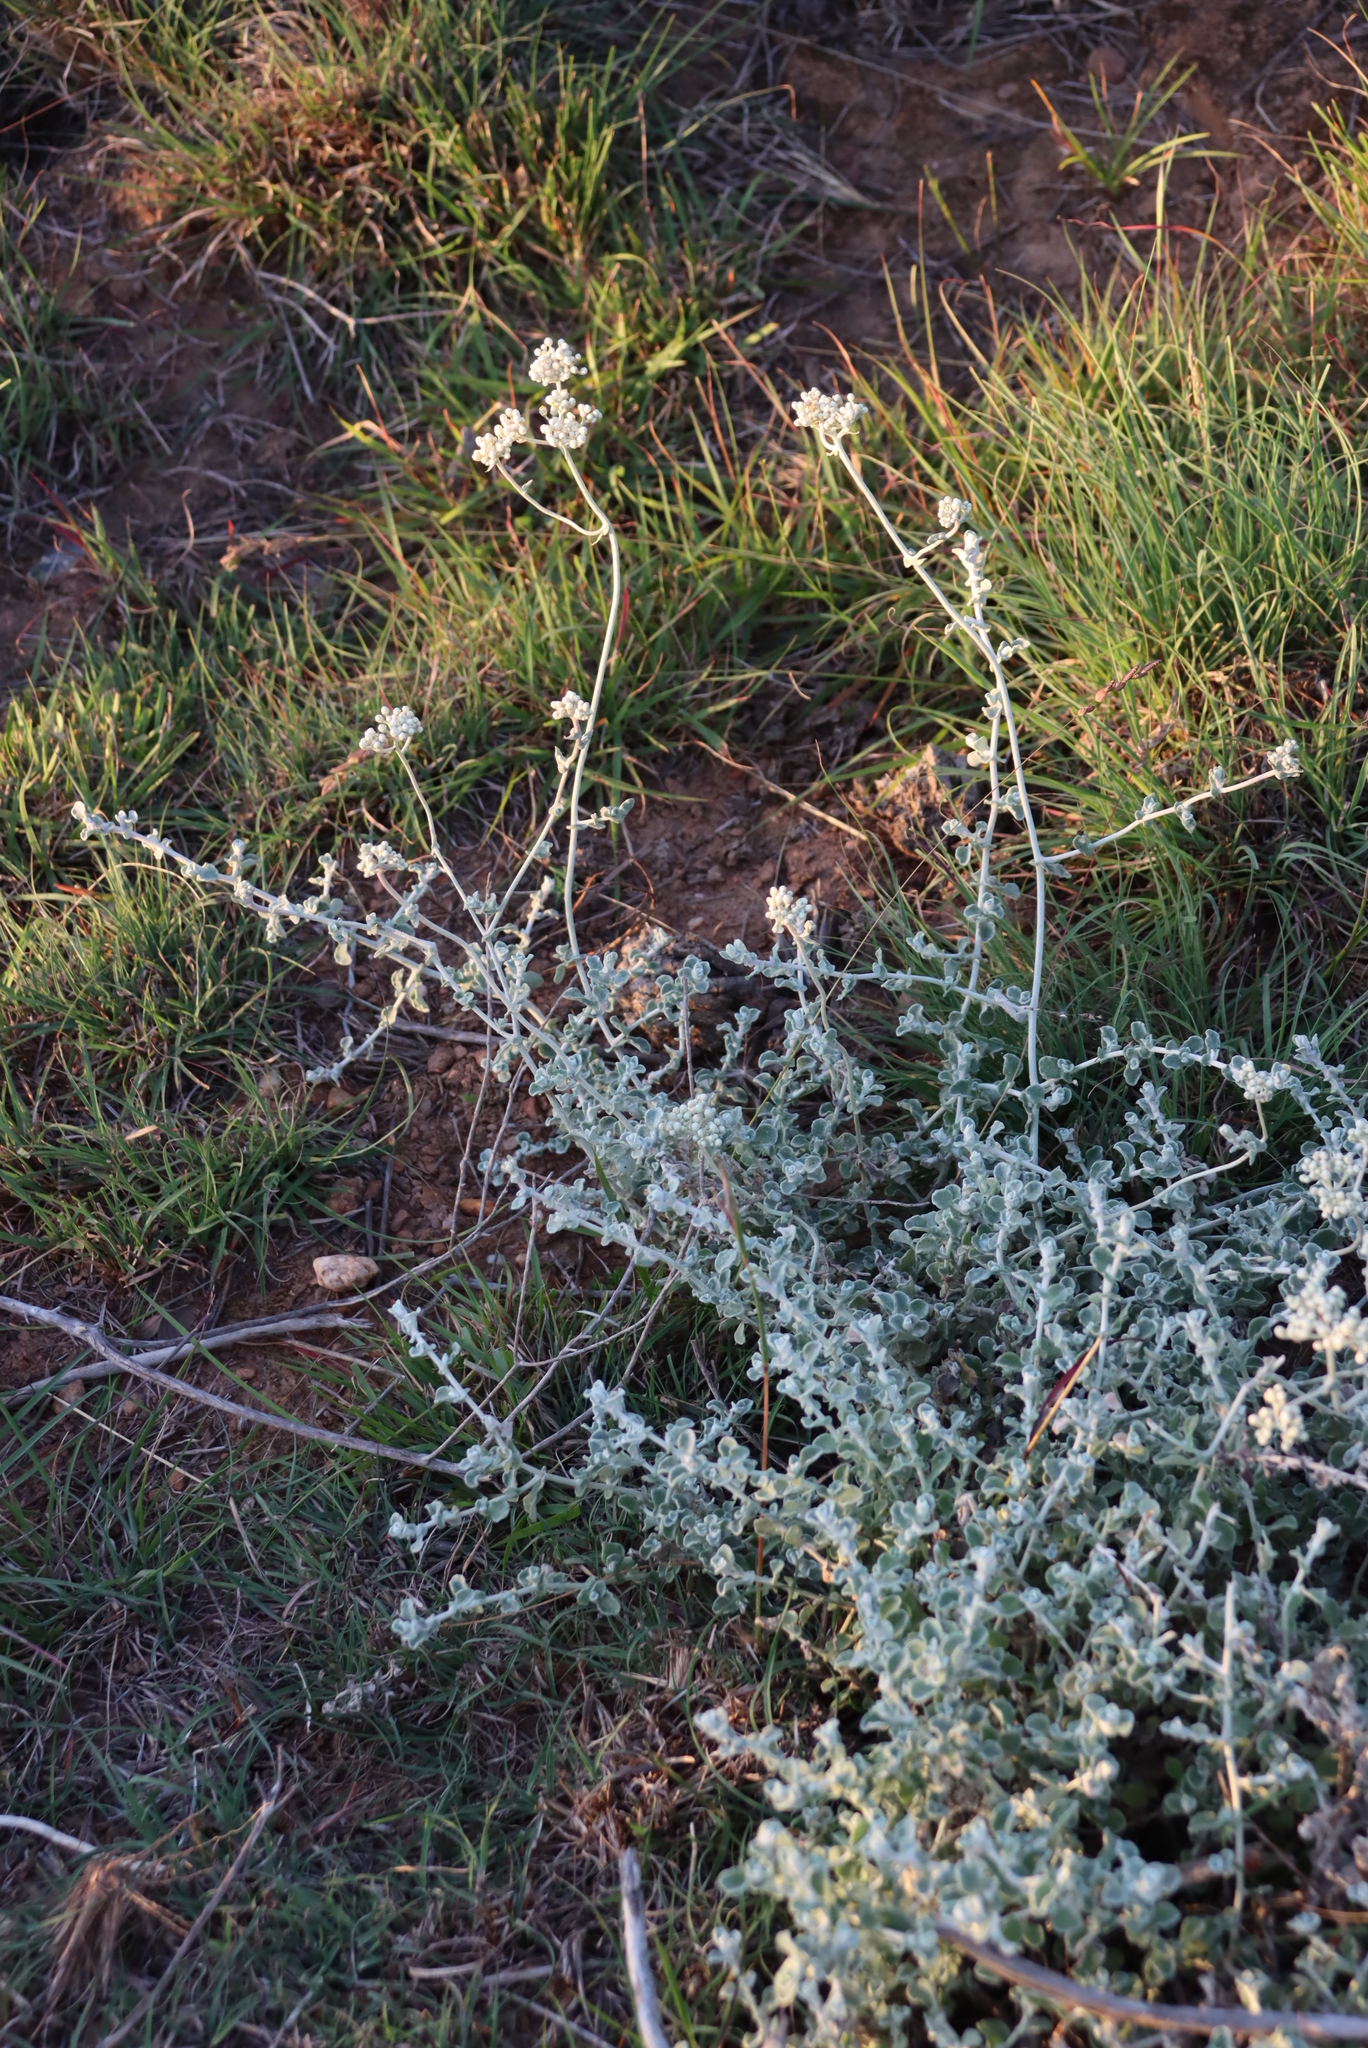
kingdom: Plantae
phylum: Tracheophyta
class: Magnoliopsida
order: Asterales
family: Asteraceae
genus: Helichrysum
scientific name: Helichrysum patulum
